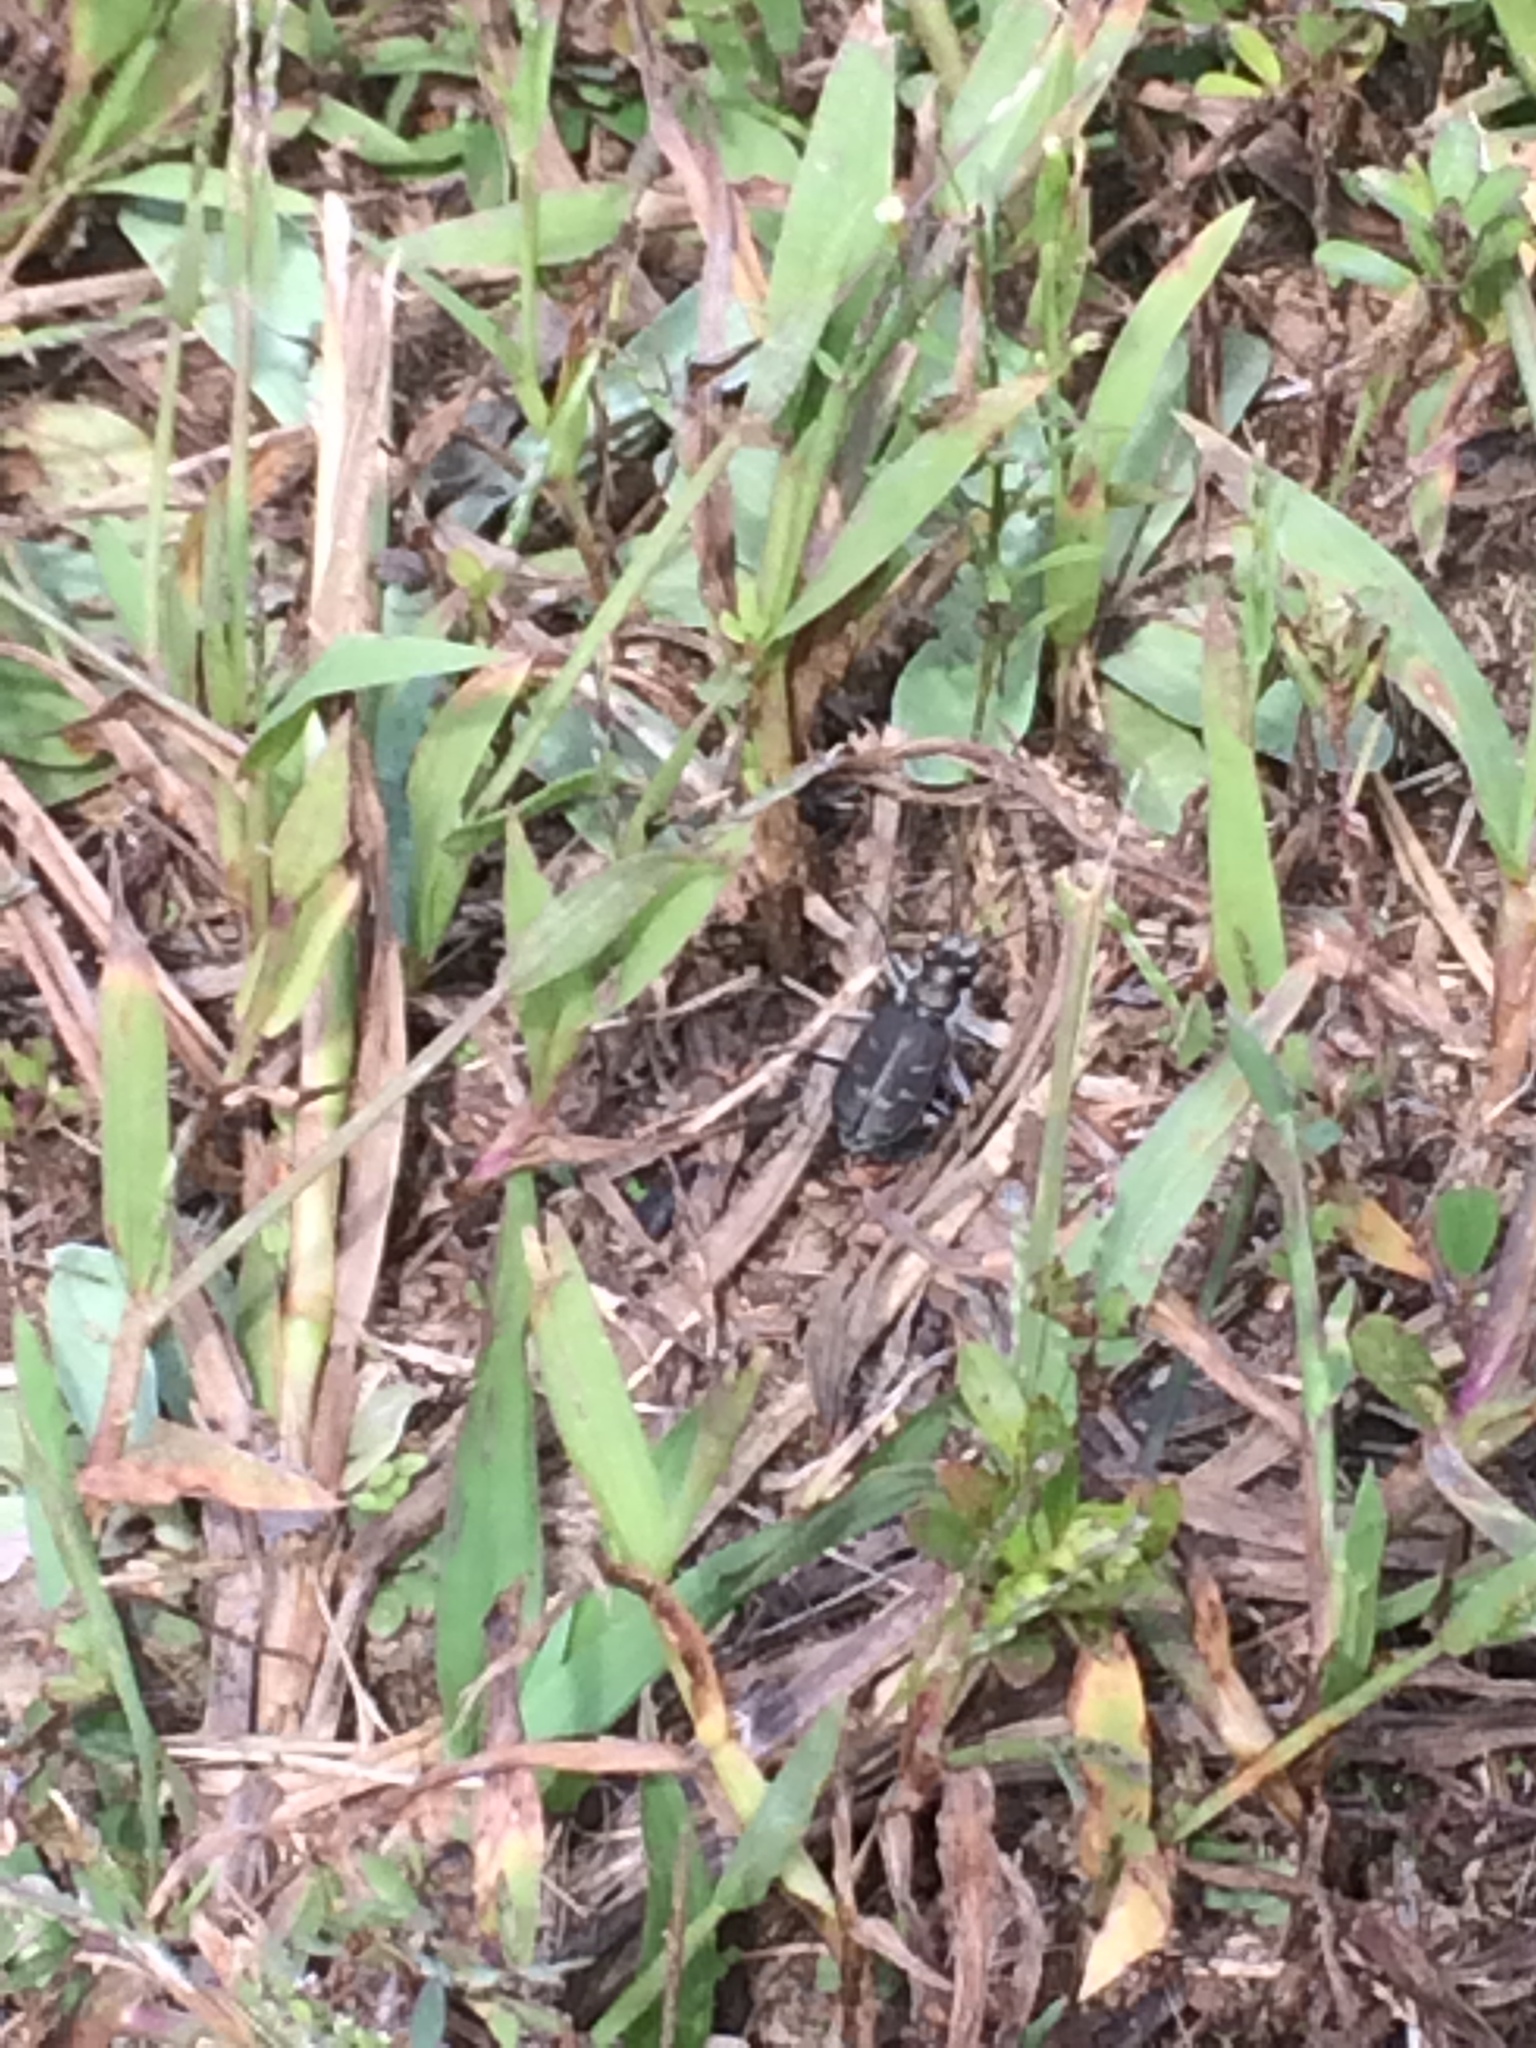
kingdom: Animalia
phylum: Arthropoda
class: Insecta
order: Coleoptera
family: Carabidae
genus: Cicindela
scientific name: Cicindela tranquebarica
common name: Oblique-lined tiger beetle
